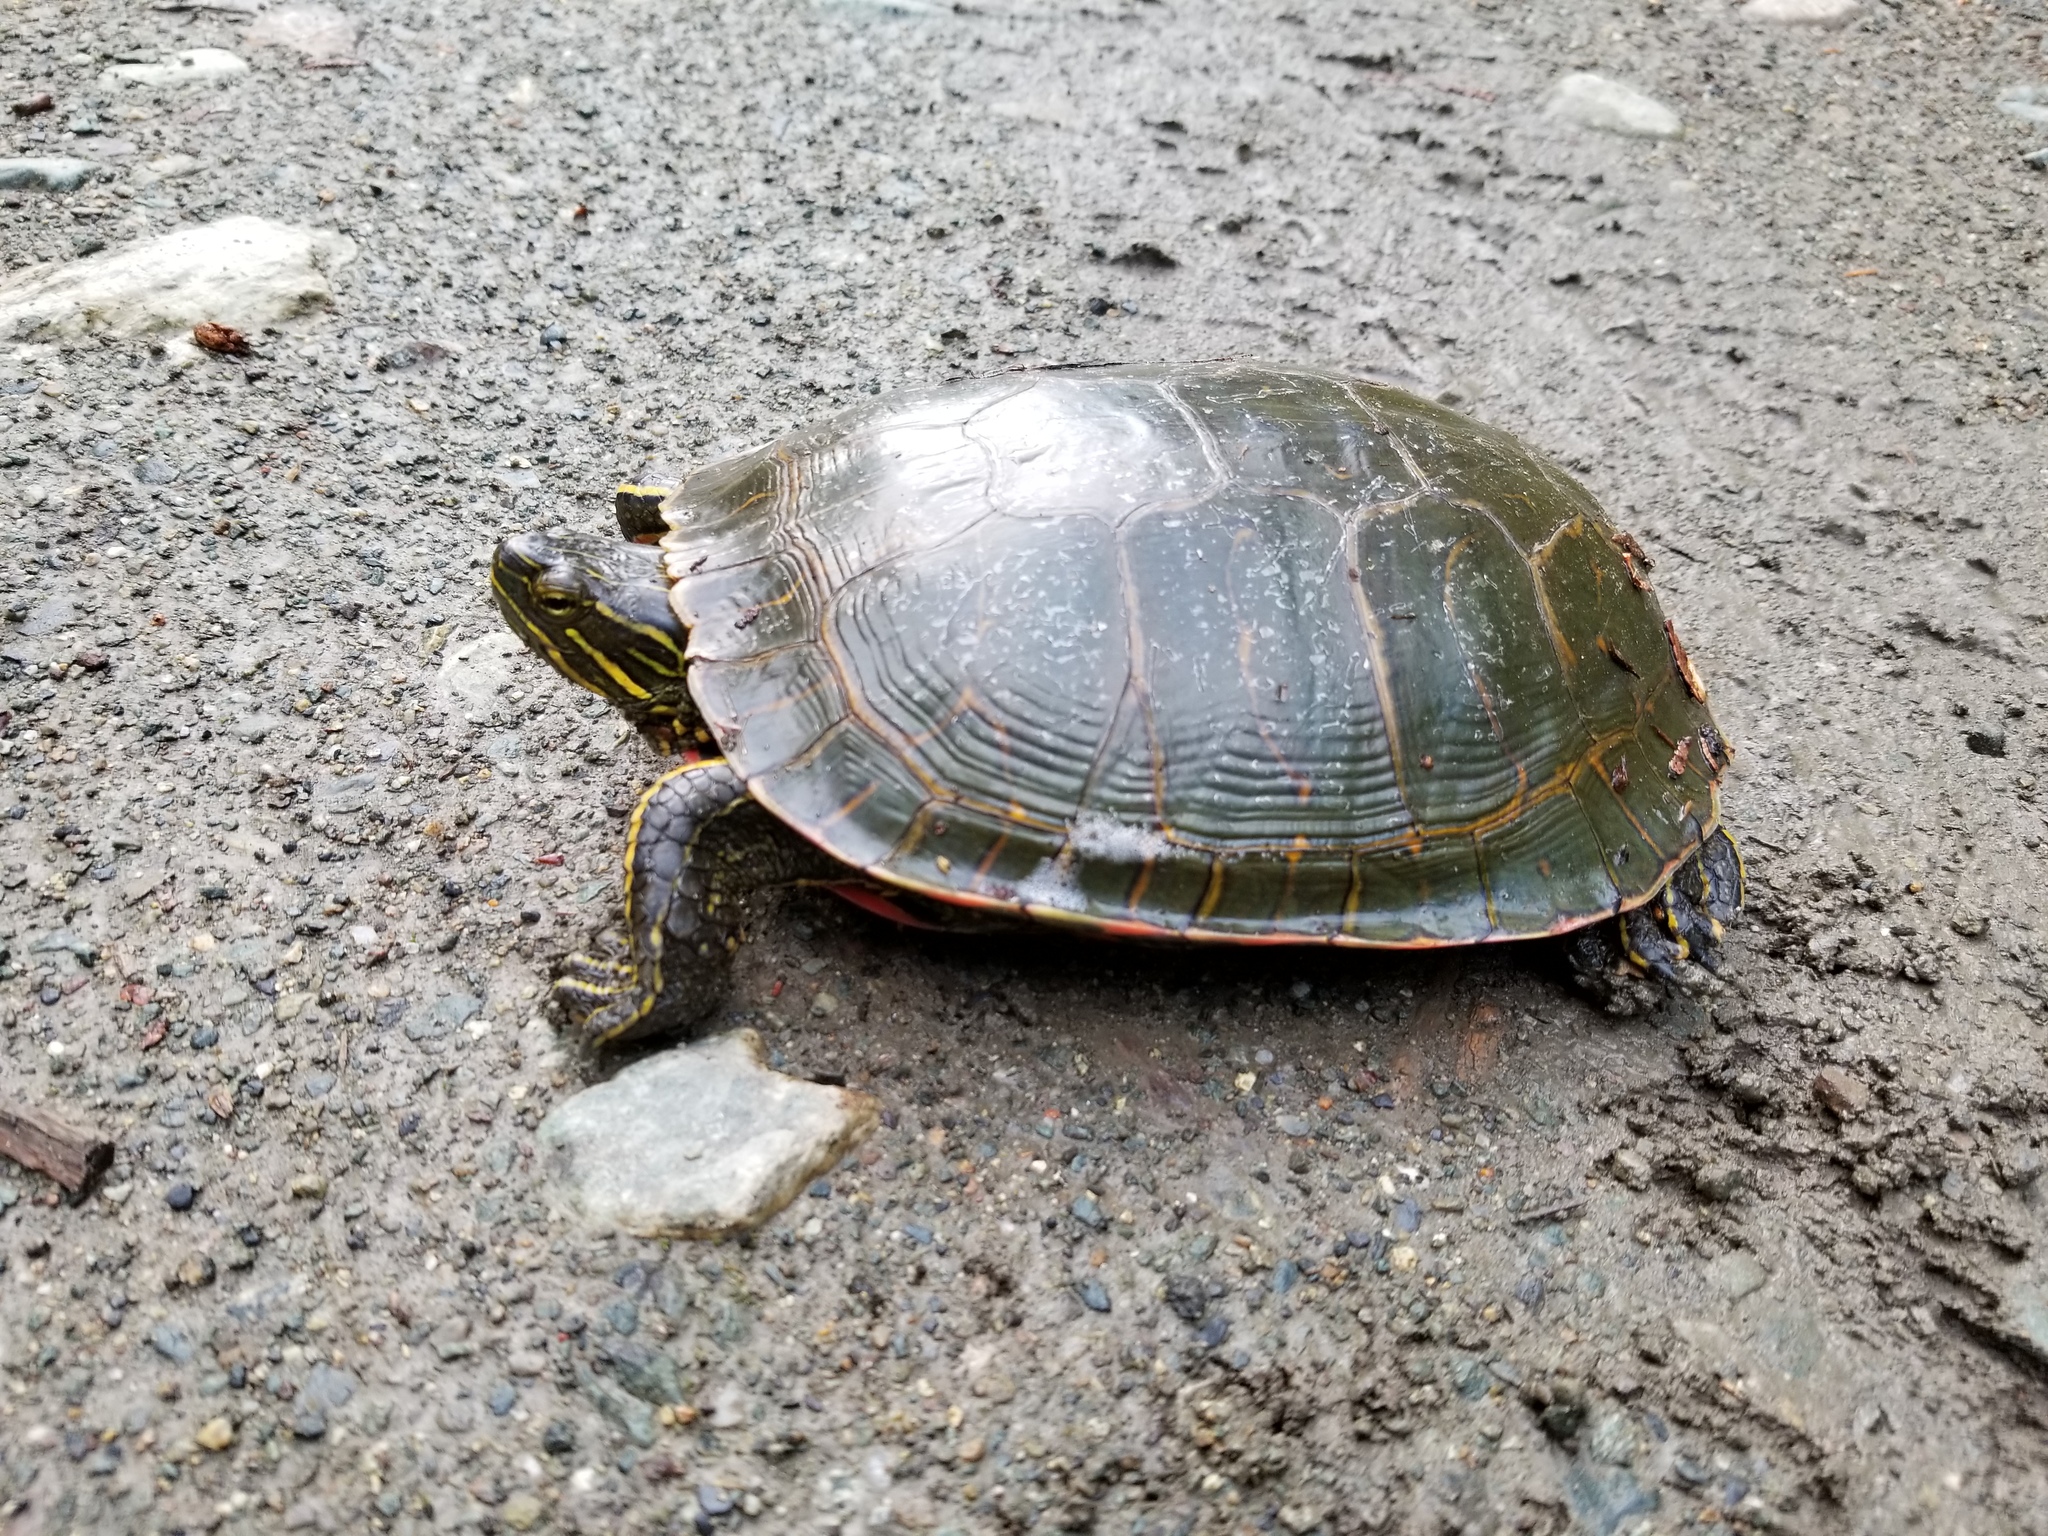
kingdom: Animalia
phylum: Chordata
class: Testudines
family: Emydidae
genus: Chrysemys
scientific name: Chrysemys picta
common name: Painted turtle
